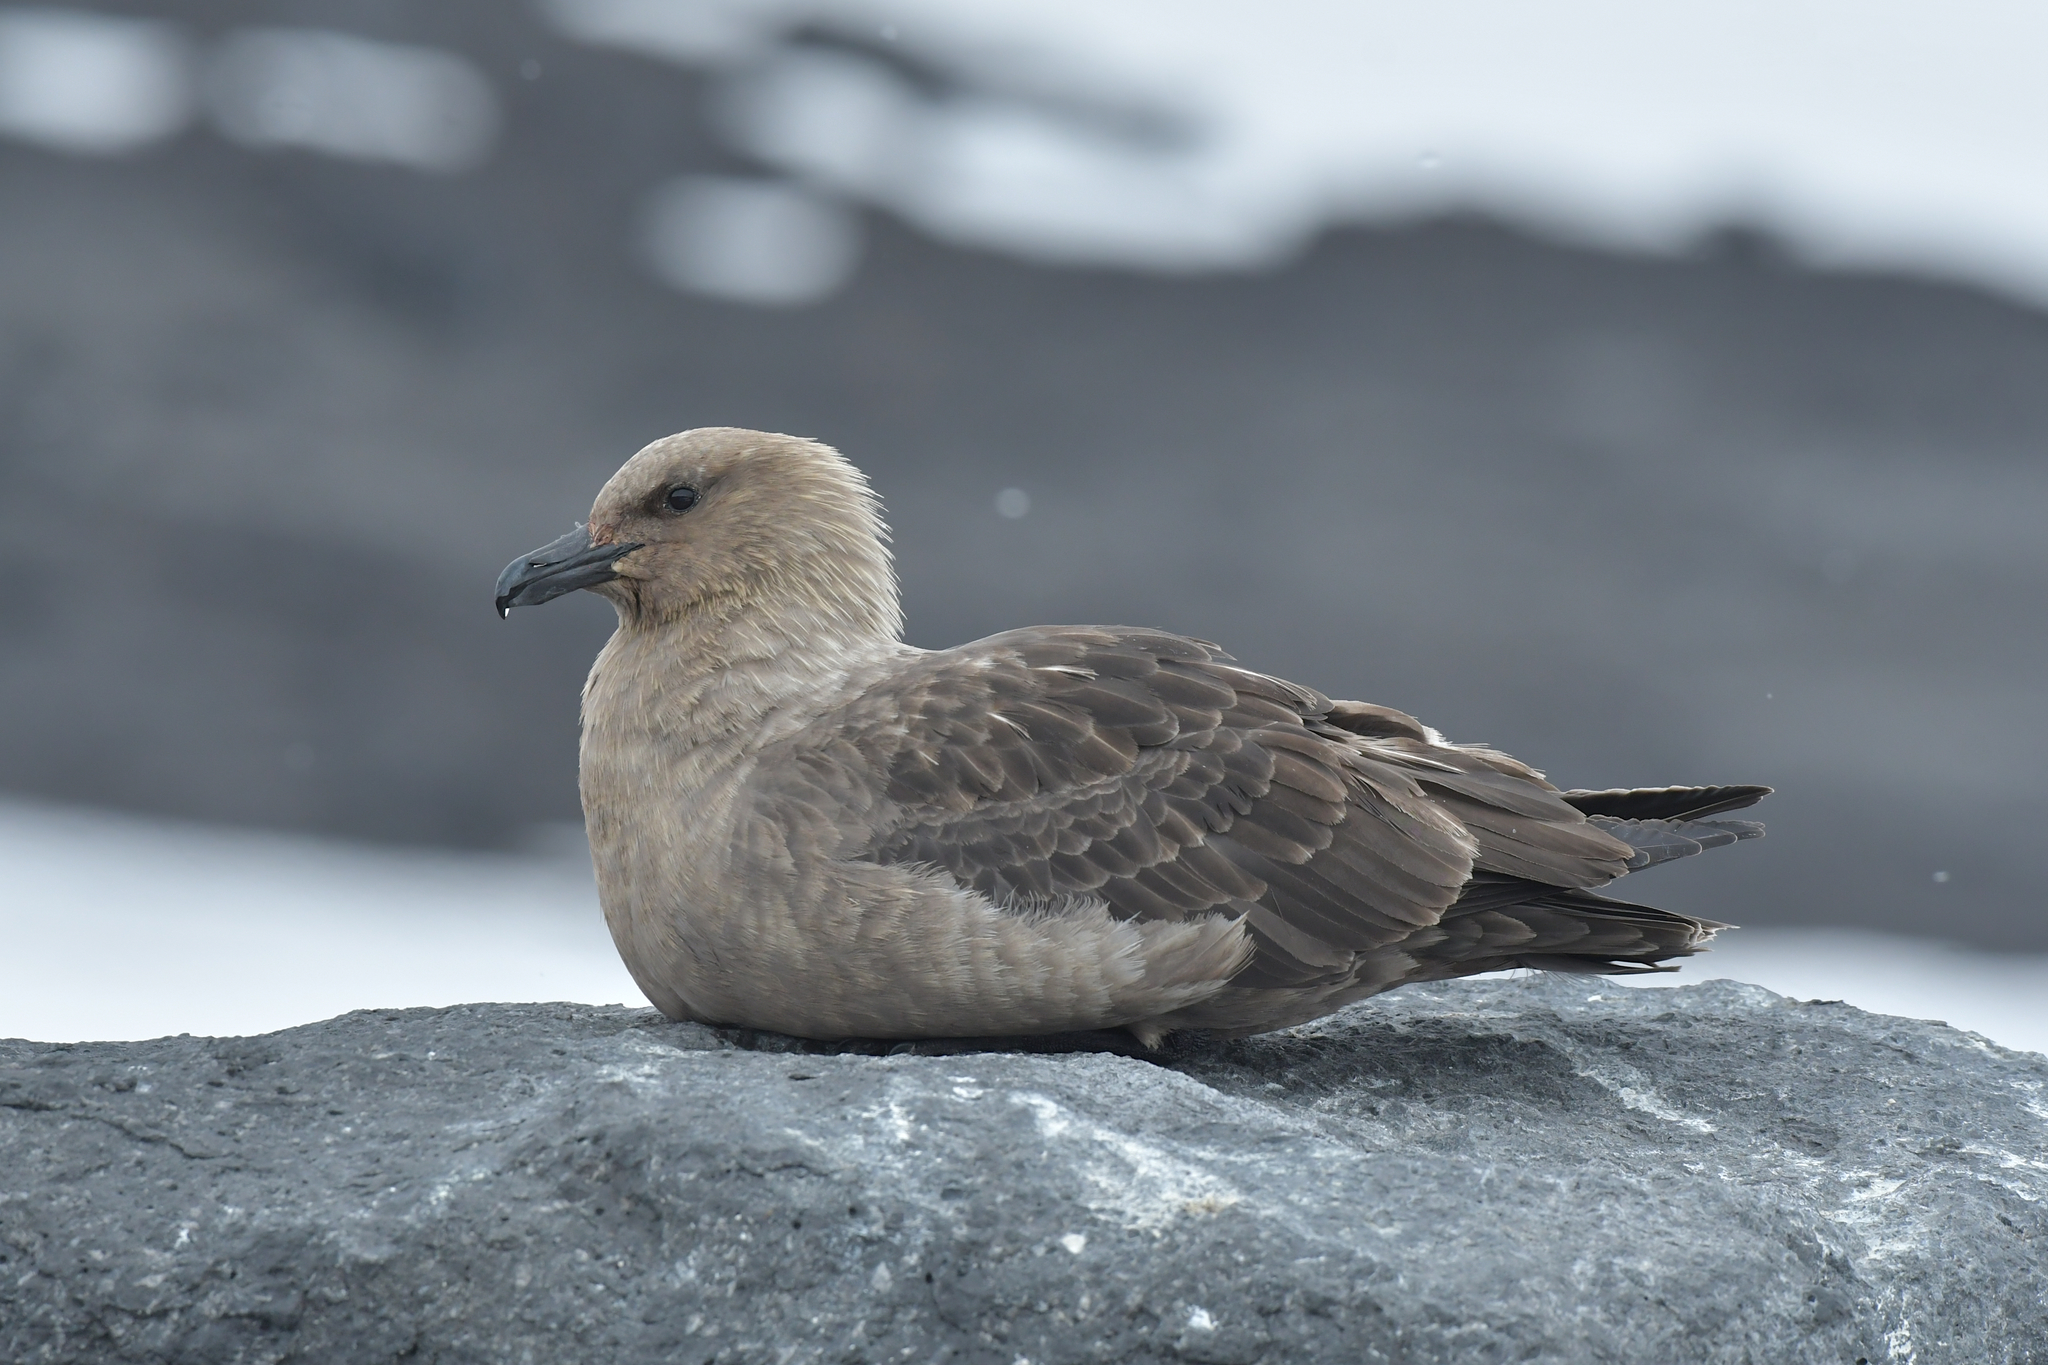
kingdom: Animalia
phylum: Chordata
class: Aves
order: Charadriiformes
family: Stercorariidae
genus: Stercorarius
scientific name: Stercorarius maccormicki
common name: South polar skua
